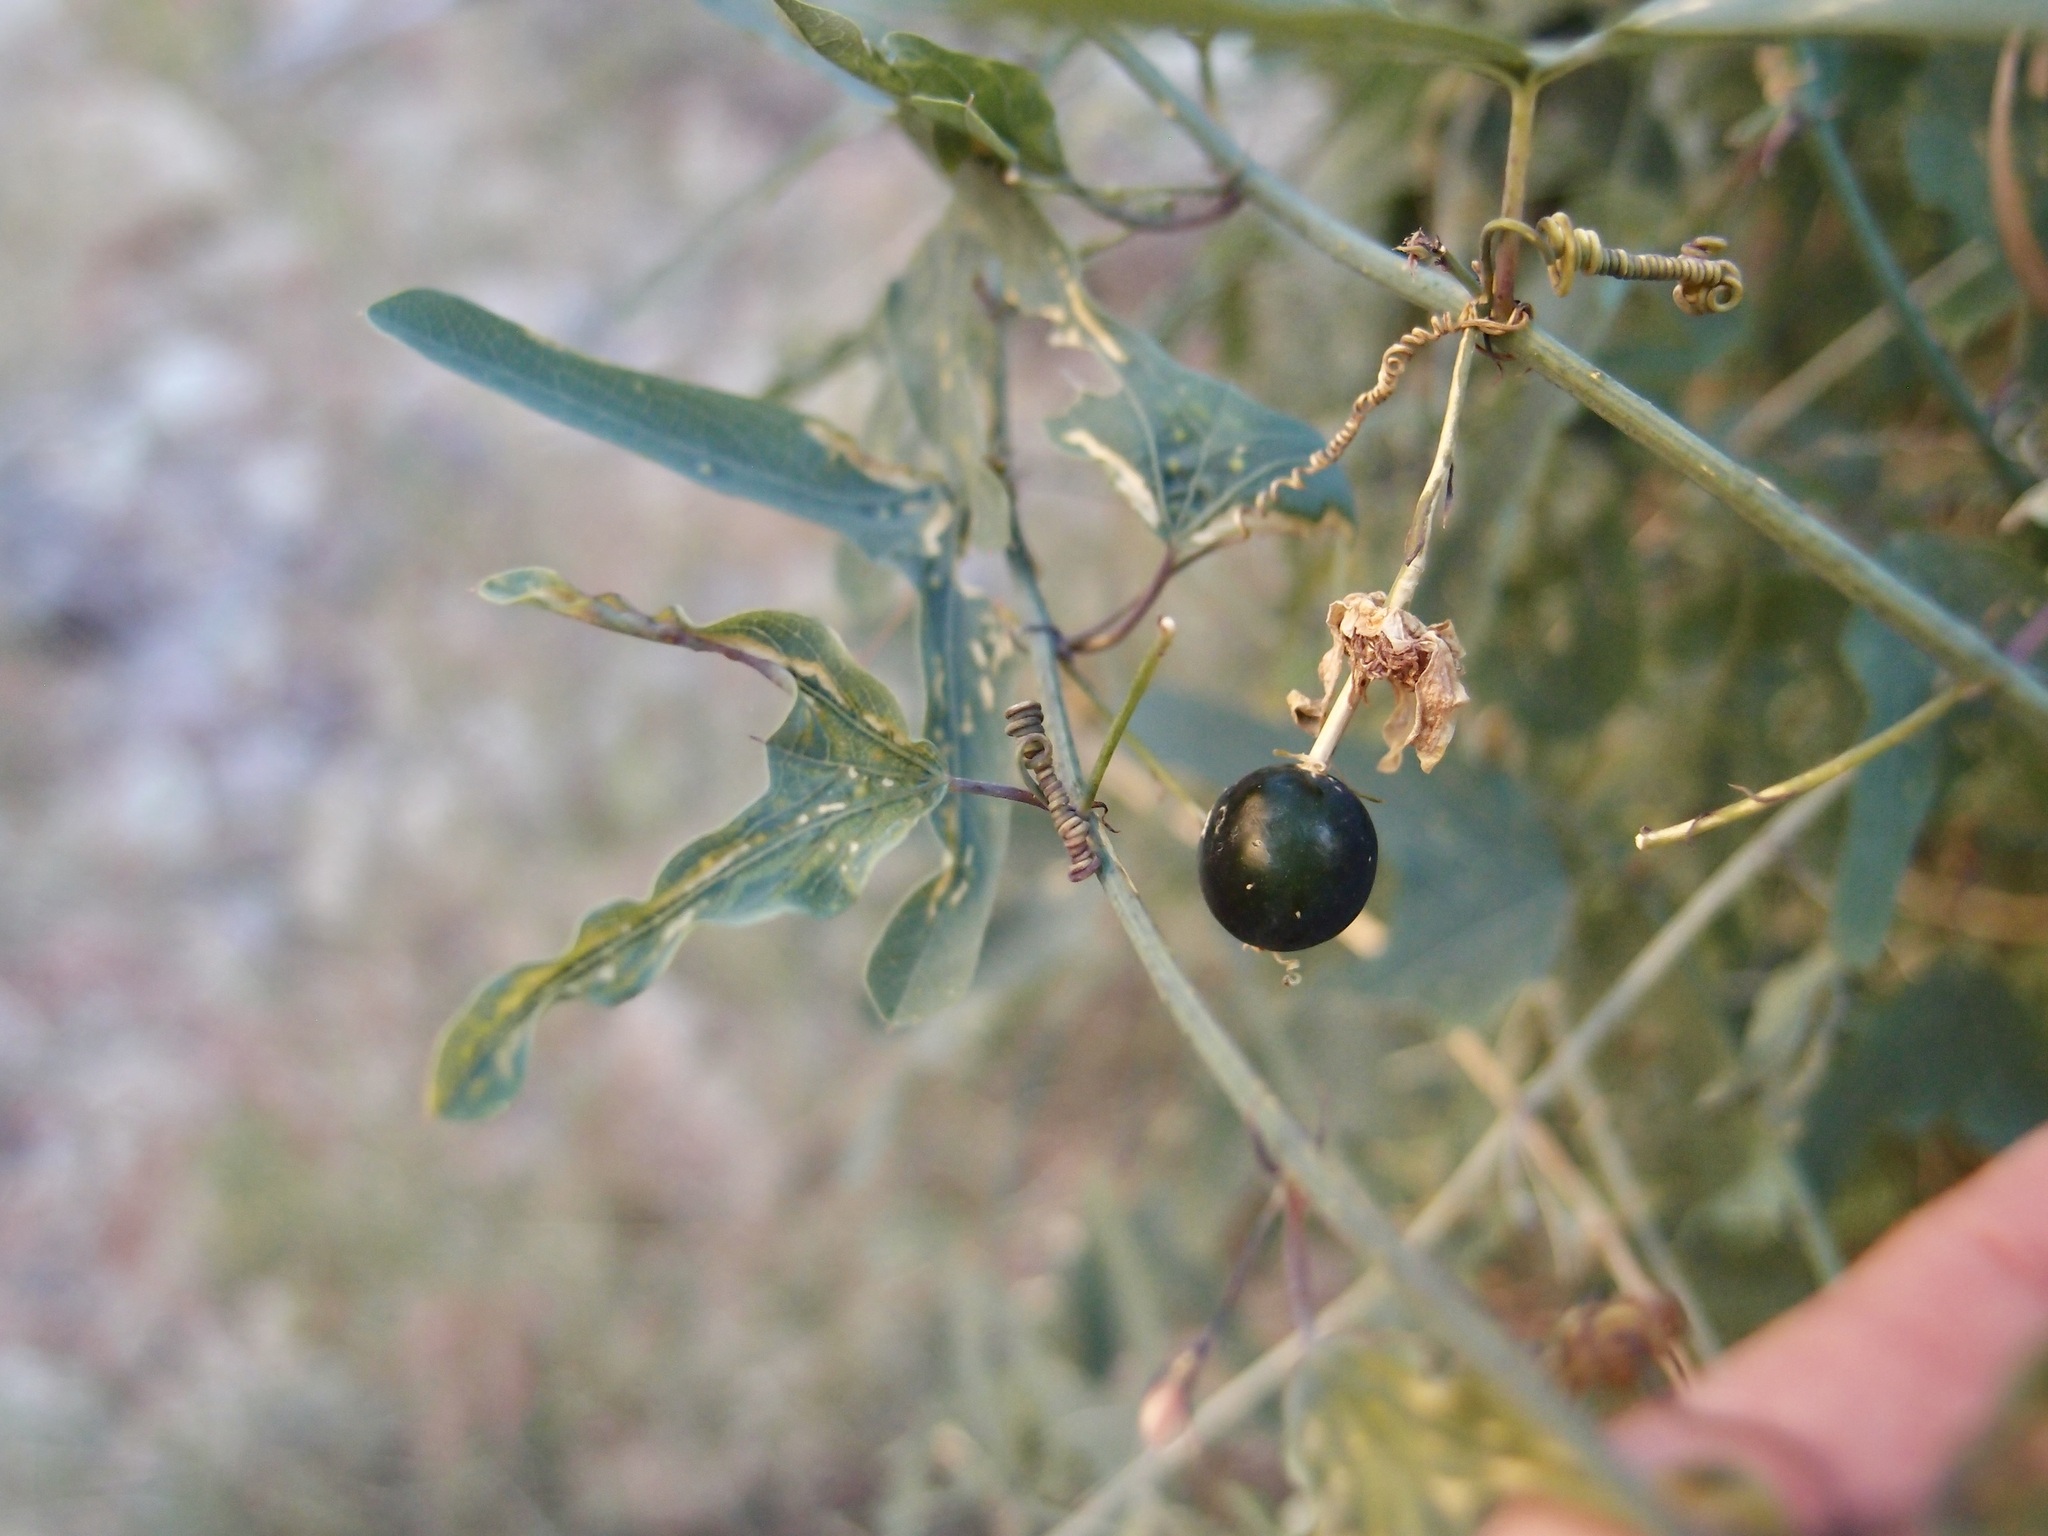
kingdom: Plantae
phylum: Tracheophyta
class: Magnoliopsida
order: Malpighiales
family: Passifloraceae
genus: Passiflora
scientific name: Passiflora mexicana
